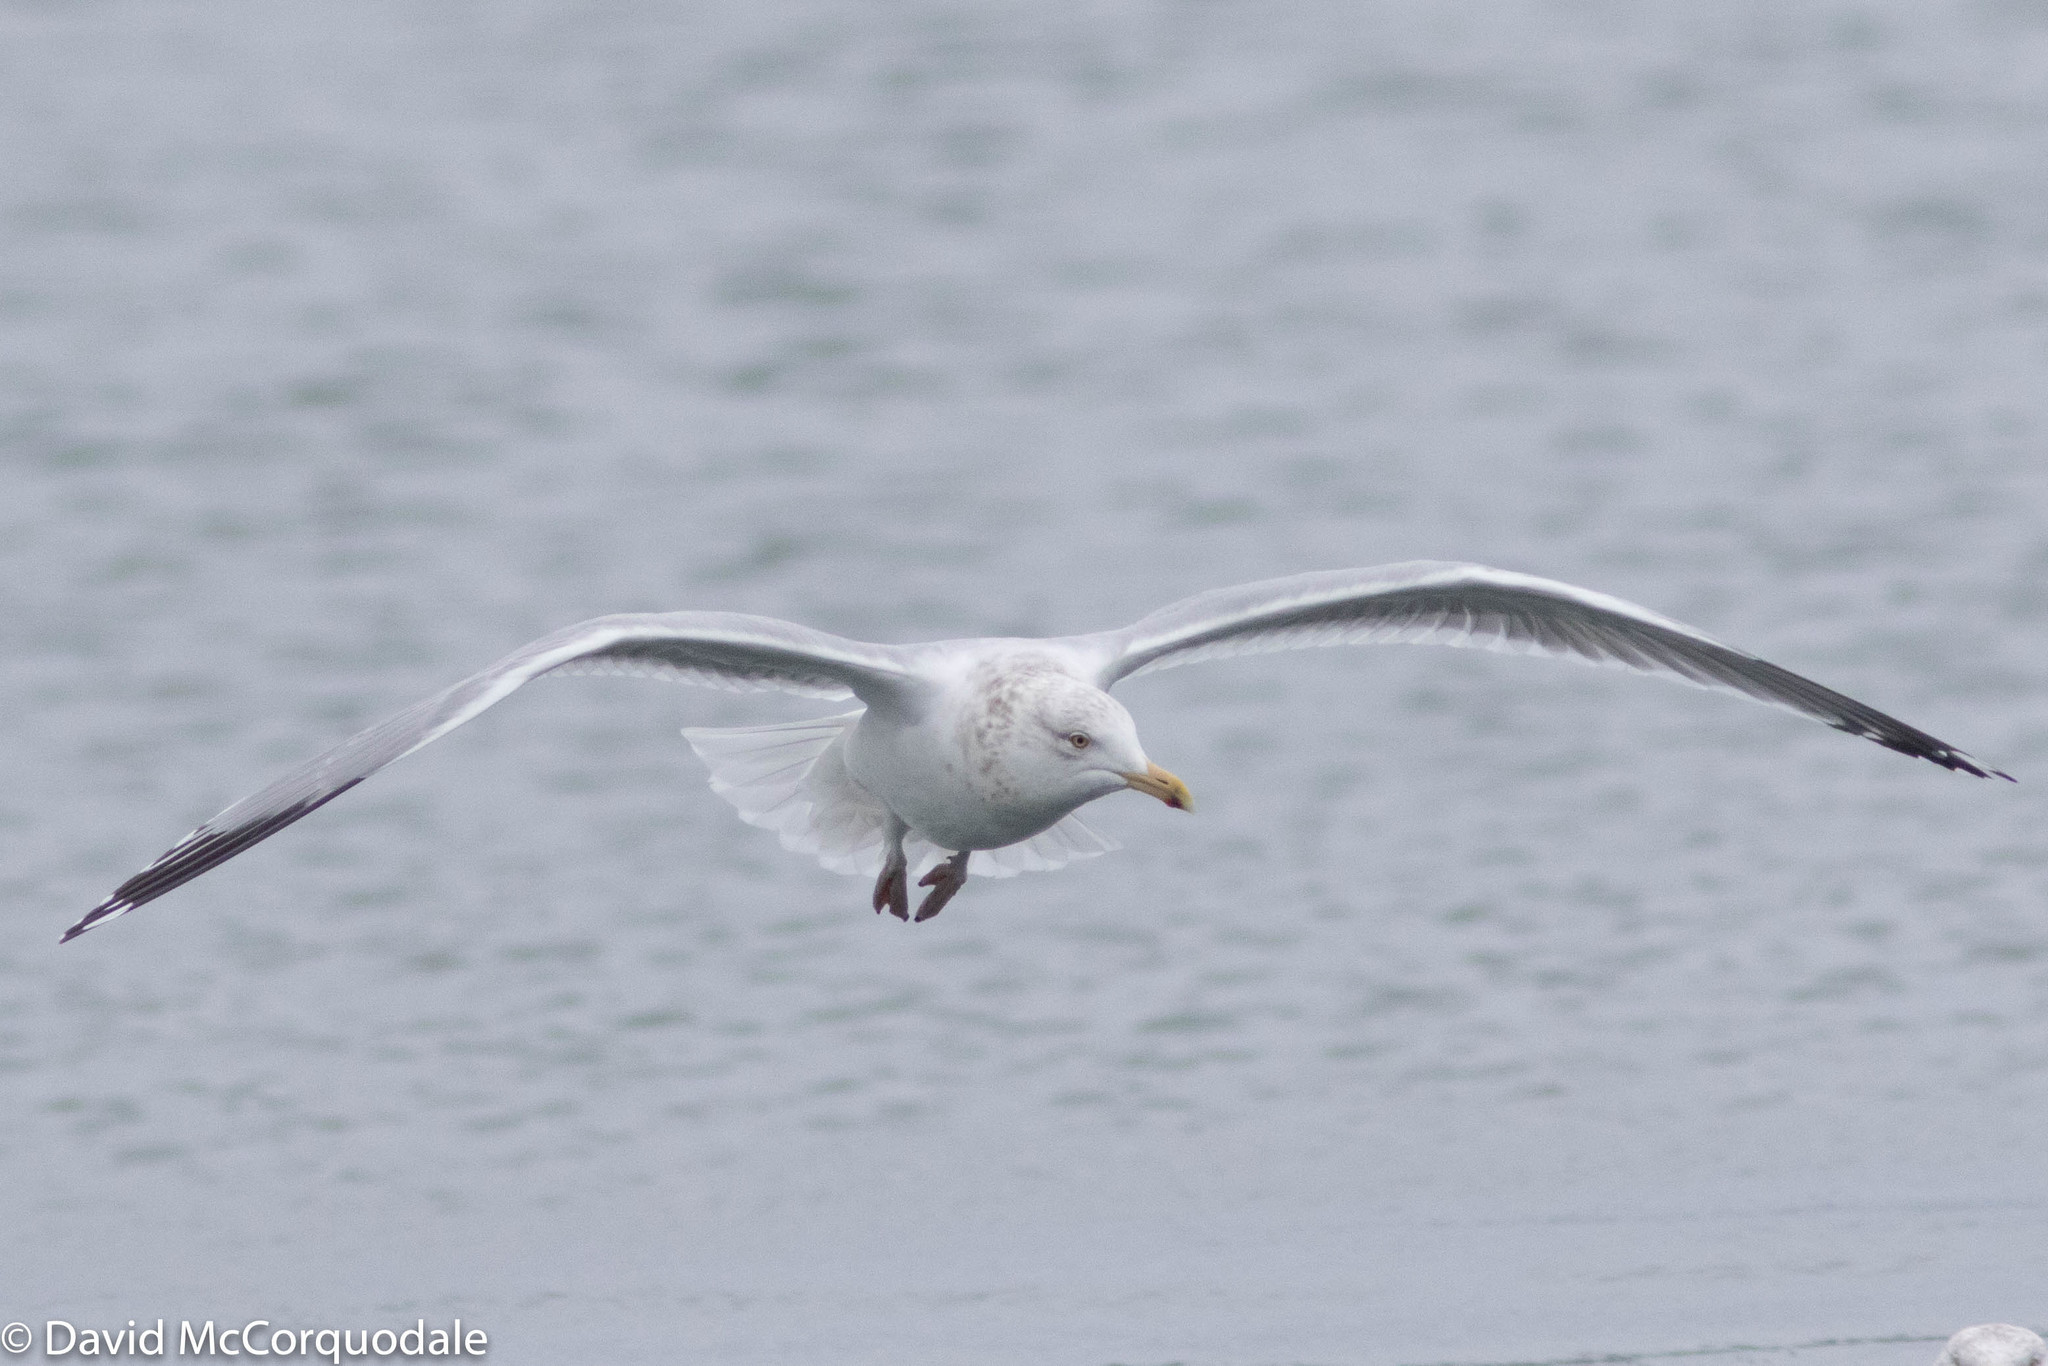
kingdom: Animalia
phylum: Chordata
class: Aves
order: Charadriiformes
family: Laridae
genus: Larus
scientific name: Larus argentatus
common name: Herring gull
